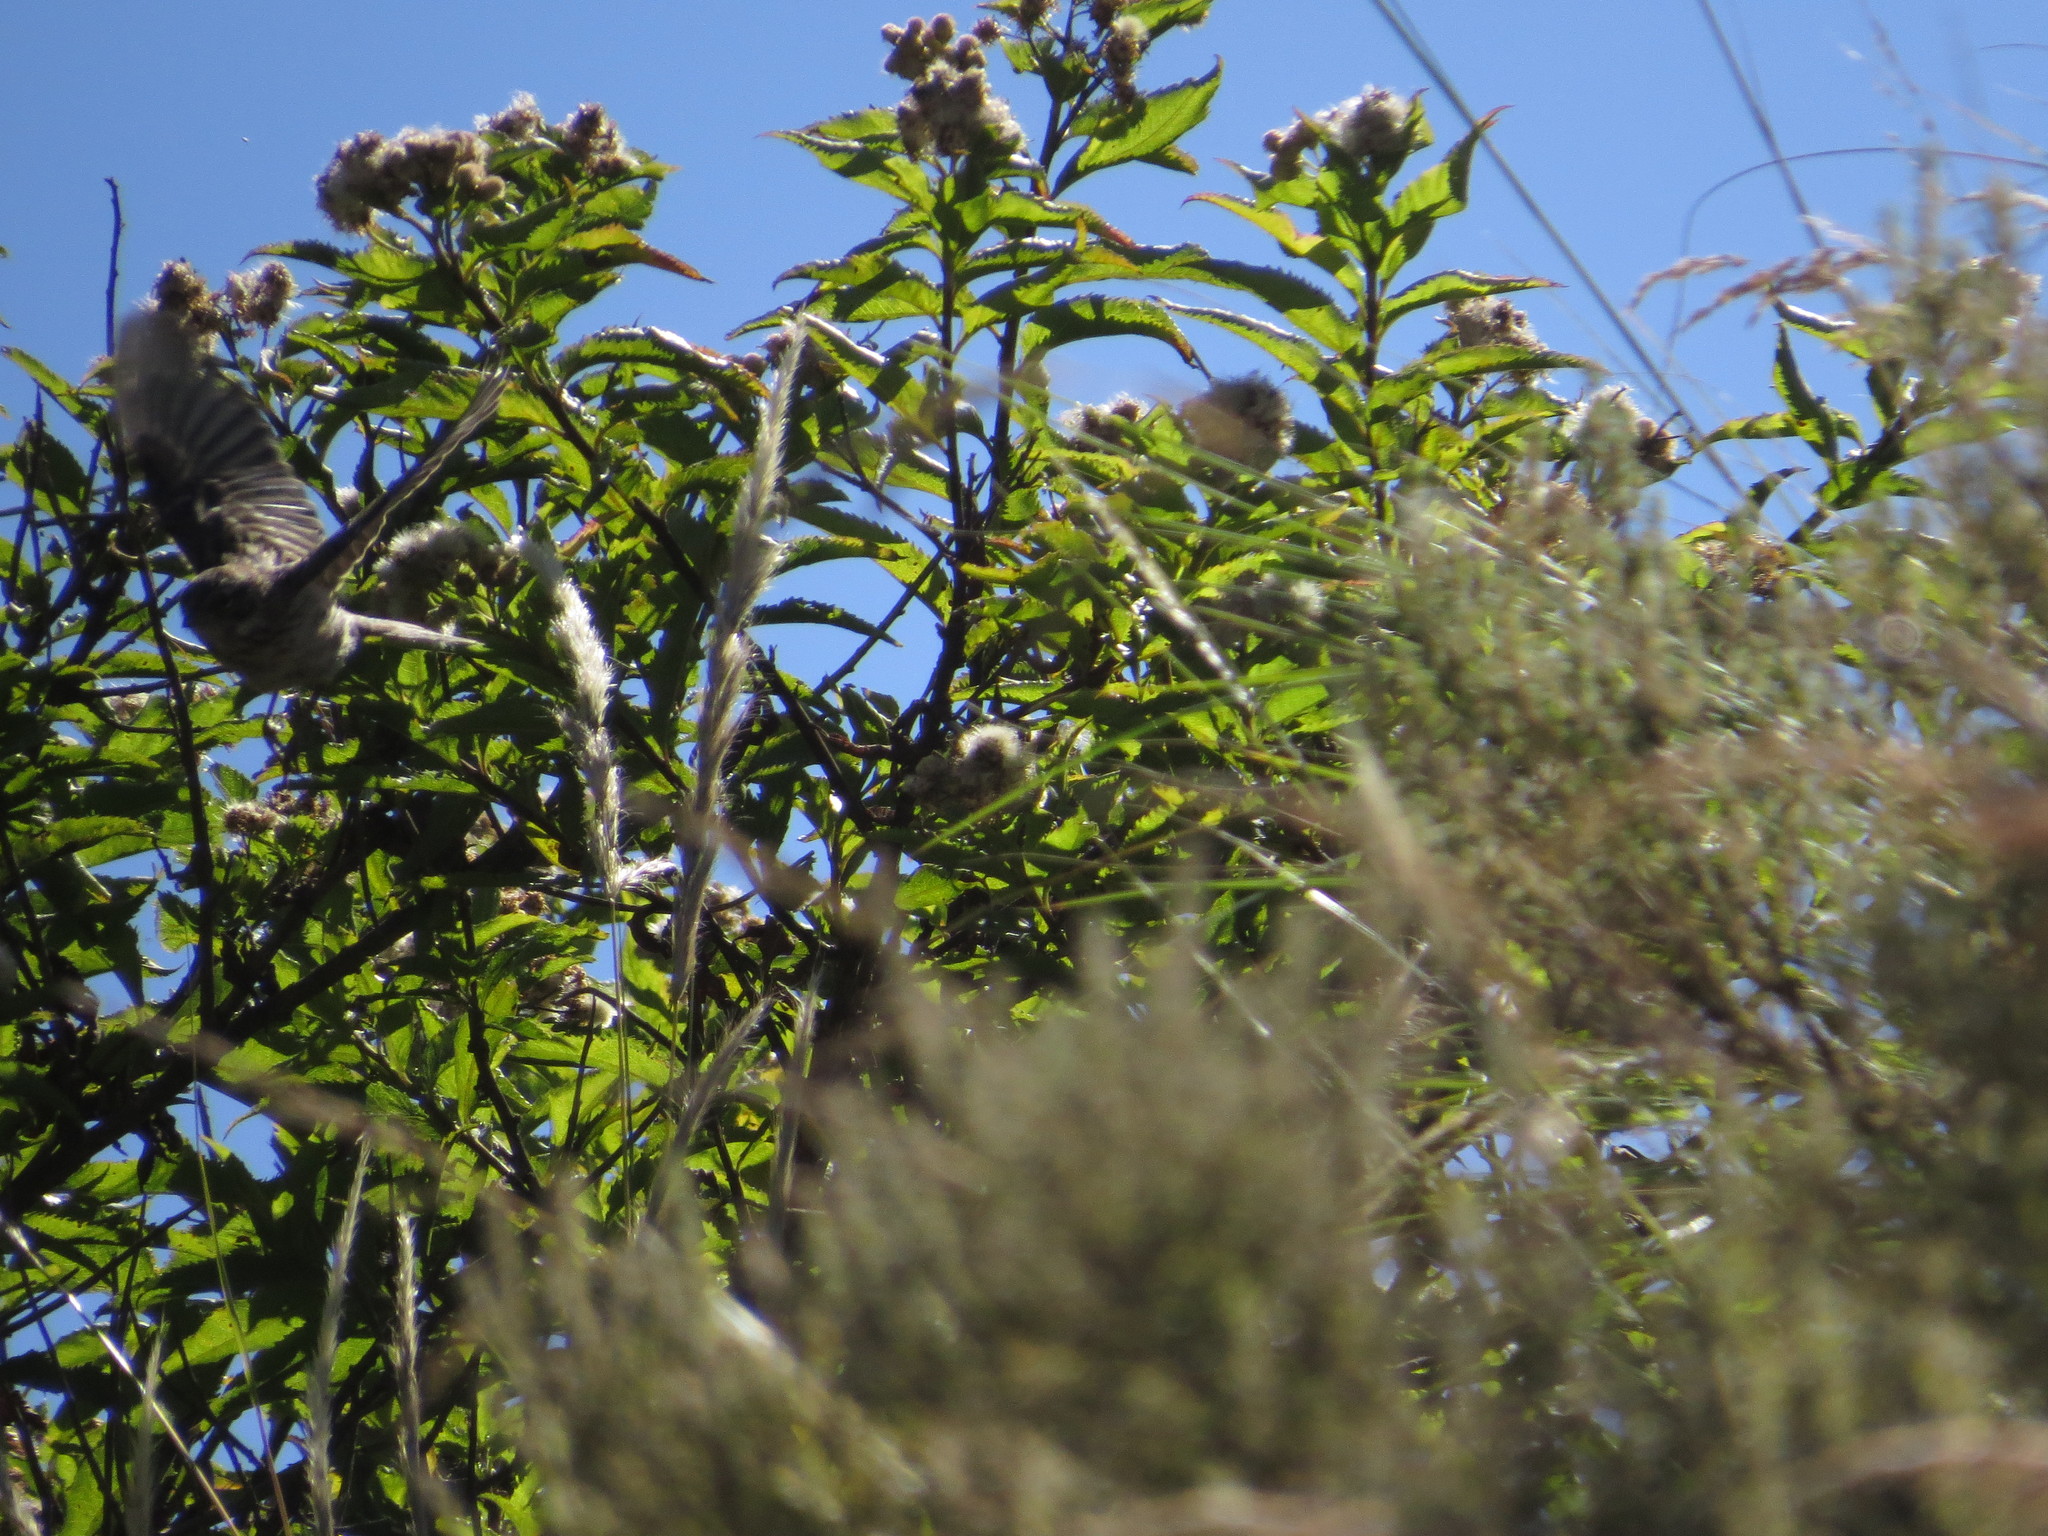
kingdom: Animalia
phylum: Chordata
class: Aves
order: Passeriformes
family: Passerellidae
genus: Zonotrichia
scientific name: Zonotrichia capensis
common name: Rufous-collared sparrow
